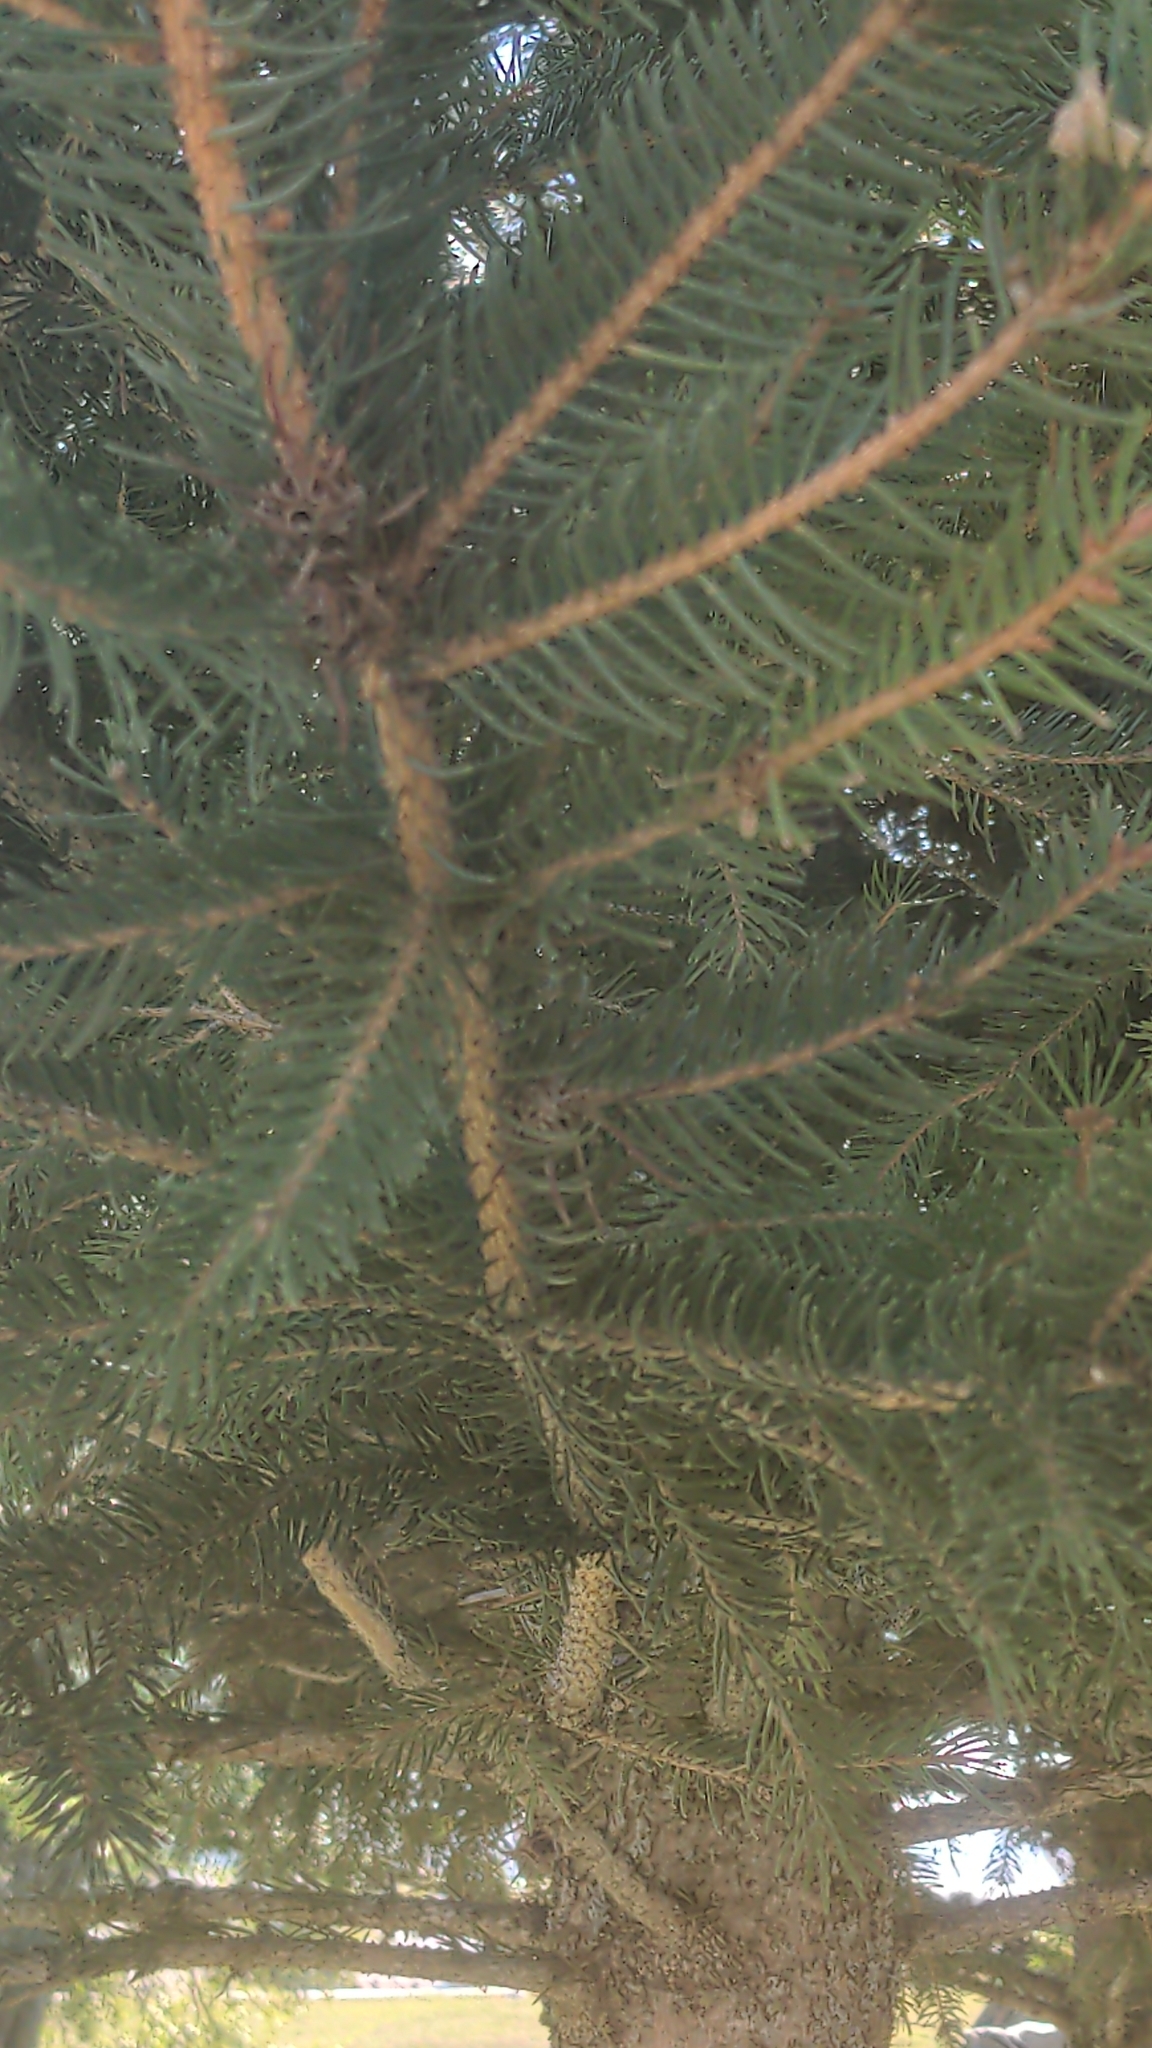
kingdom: Plantae
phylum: Tracheophyta
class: Pinopsida
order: Pinales
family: Pinaceae
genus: Picea
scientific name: Picea abies
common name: Norway spruce
